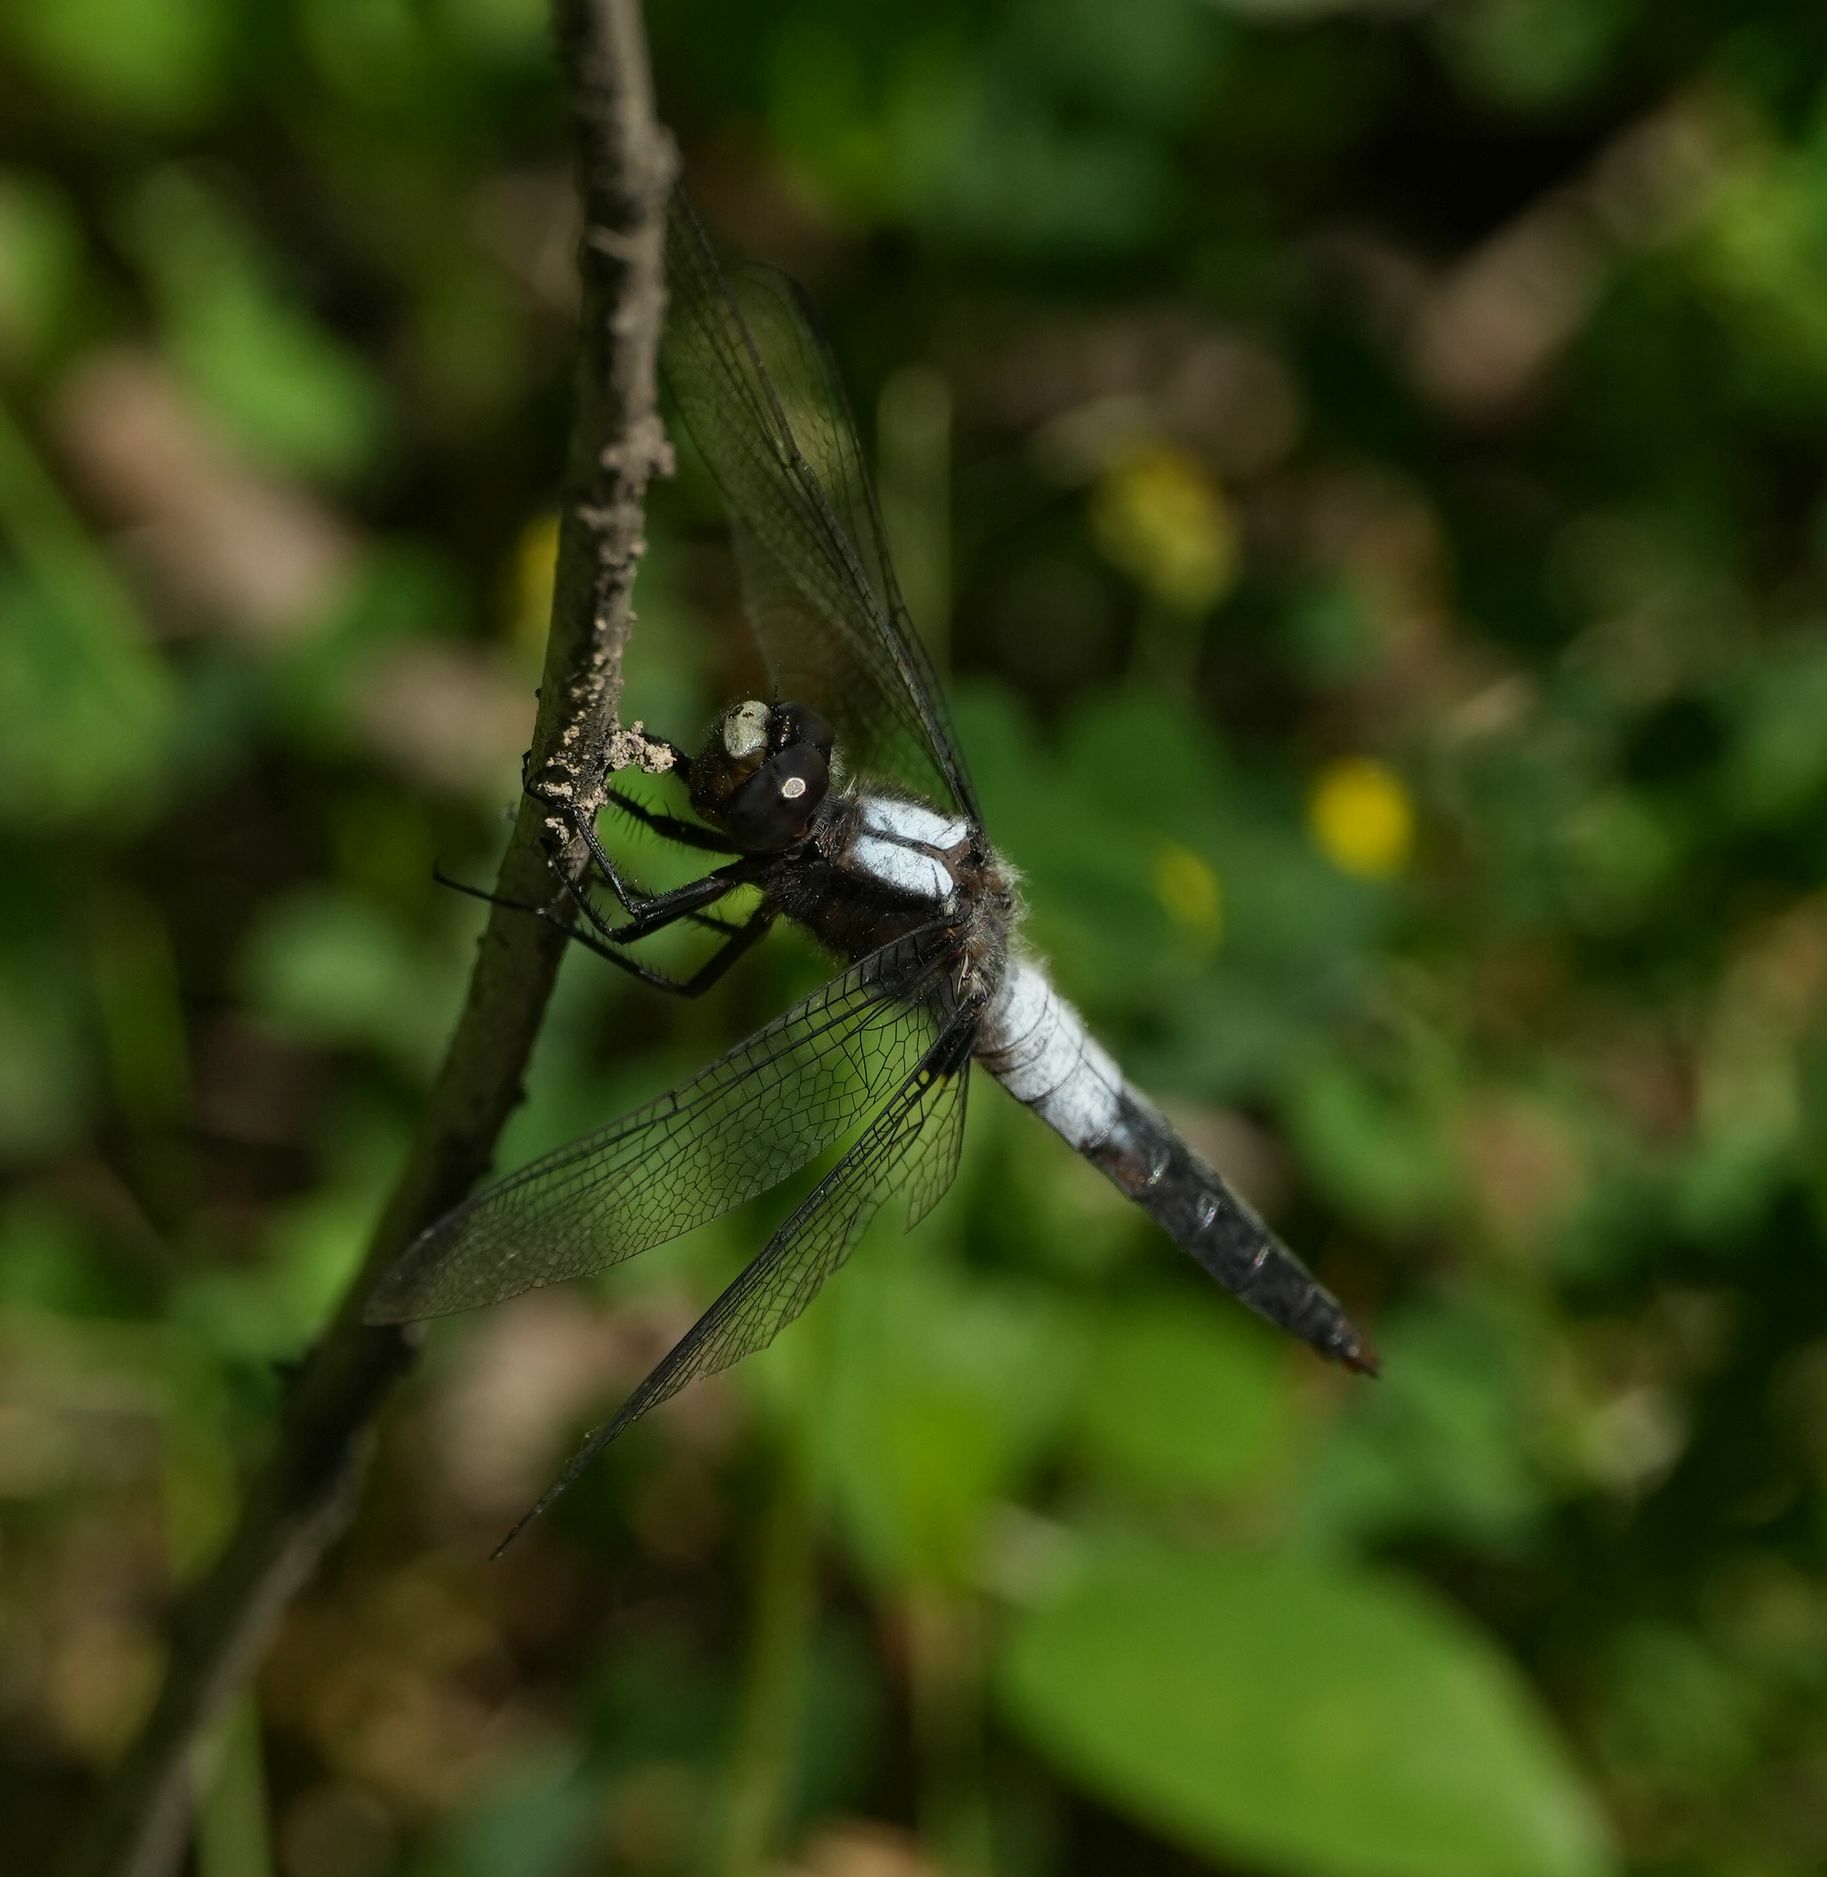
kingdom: Animalia
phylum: Arthropoda
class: Insecta
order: Odonata
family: Libellulidae
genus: Ladona
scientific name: Ladona julia
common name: Chalk-fronted corporal
